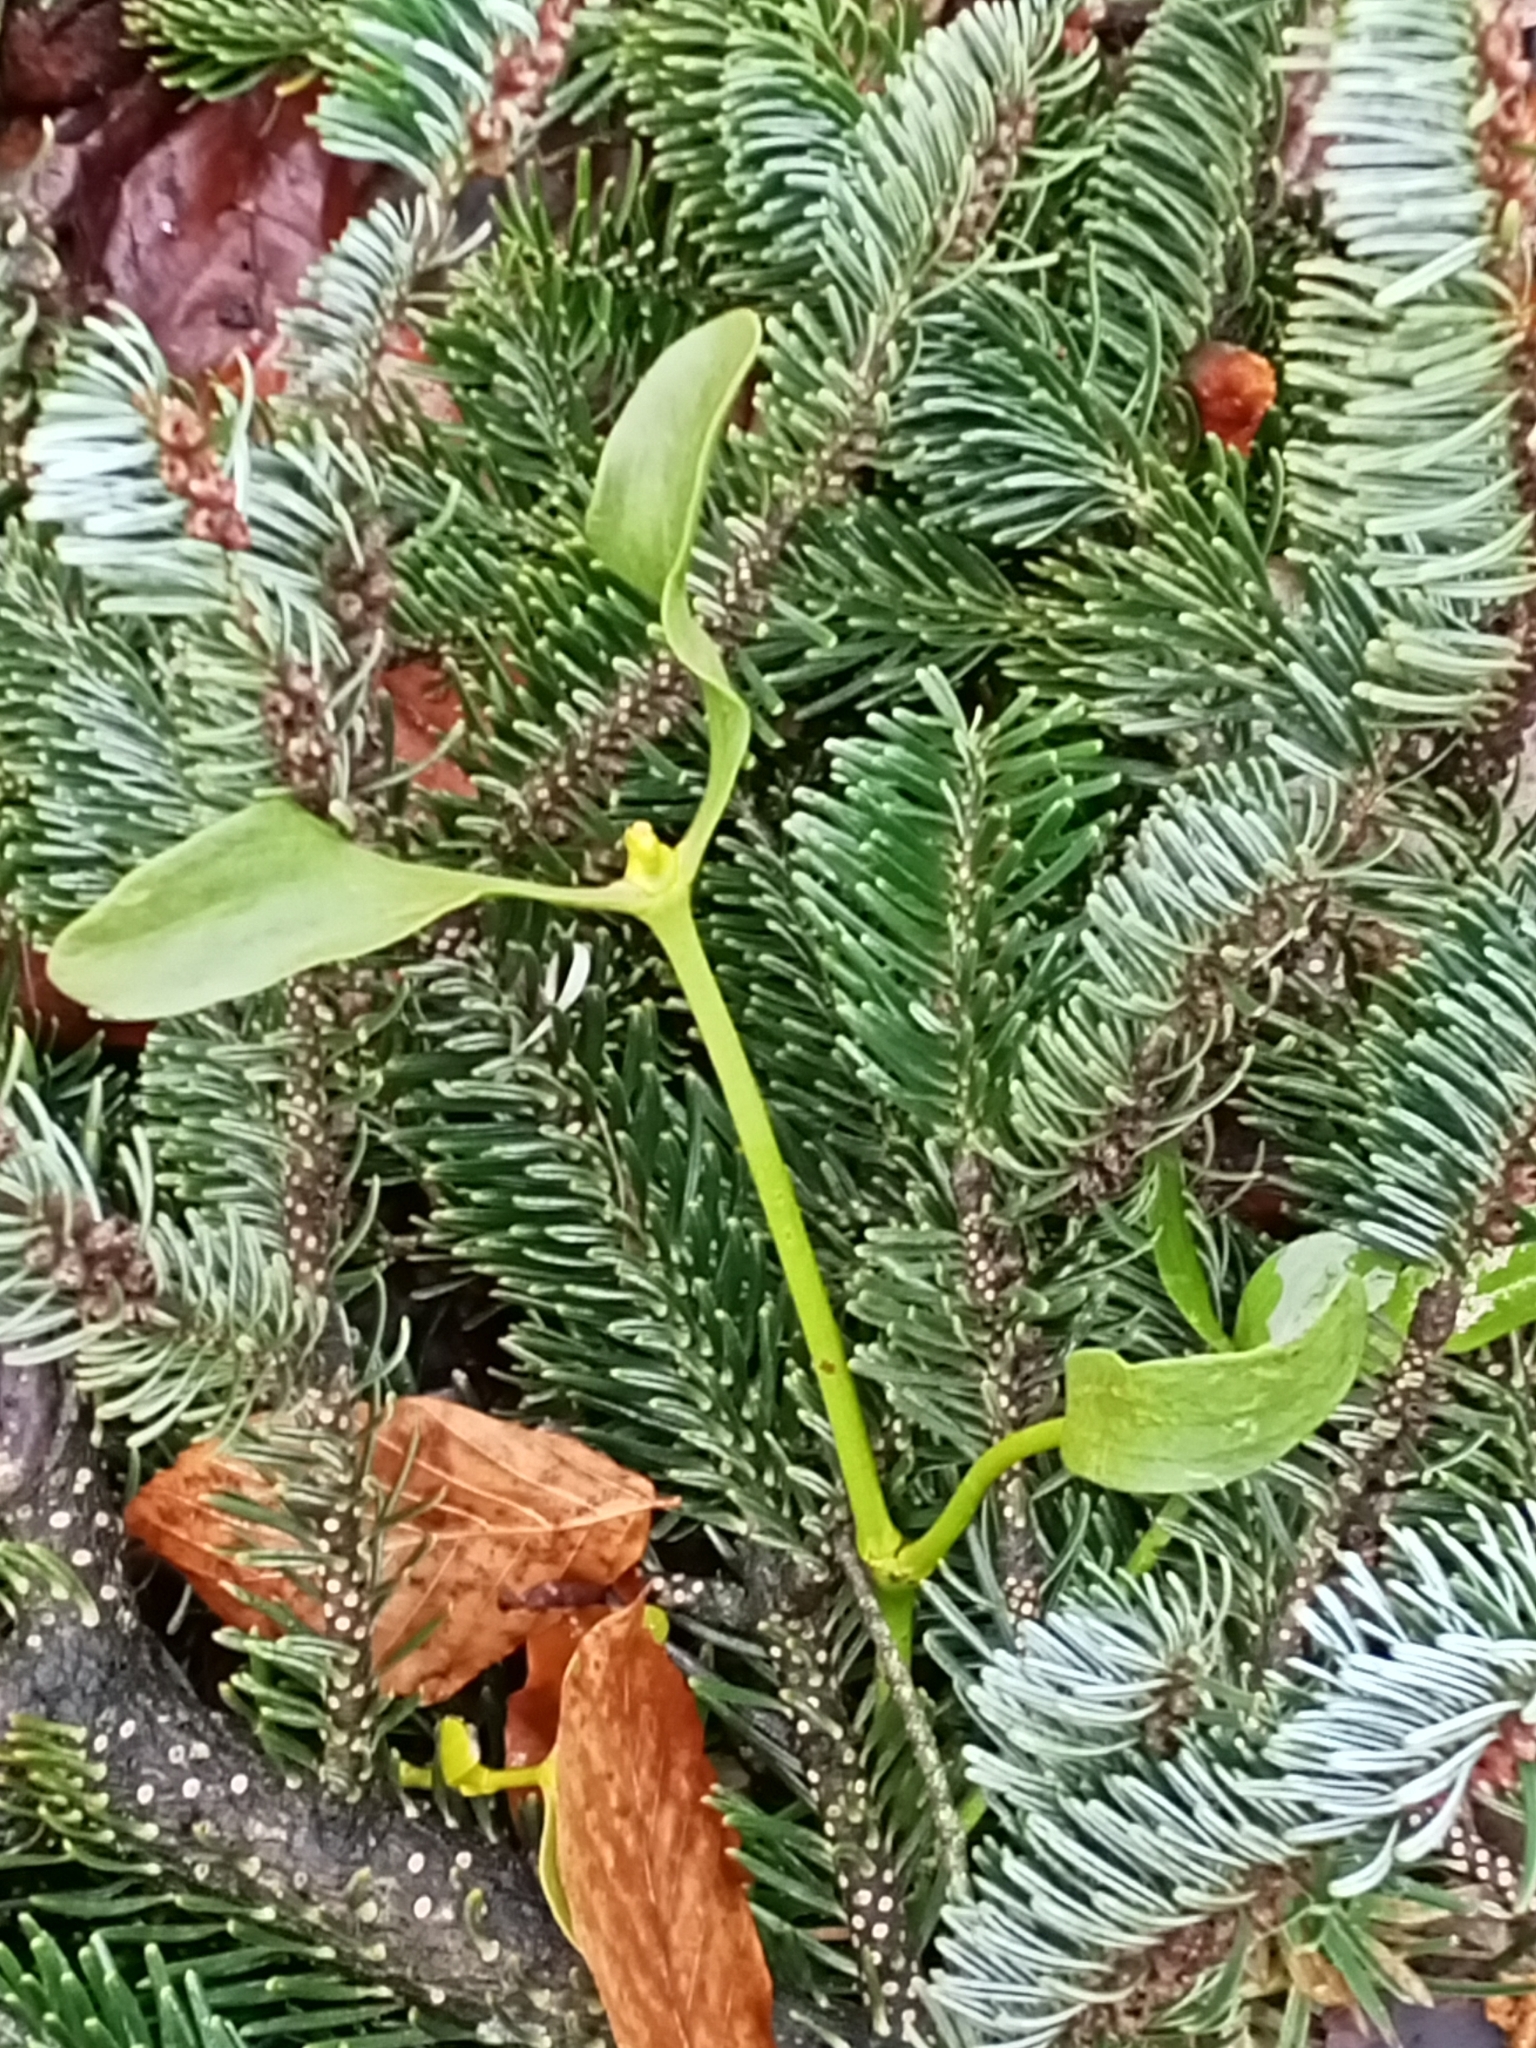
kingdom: Plantae
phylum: Tracheophyta
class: Magnoliopsida
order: Santalales
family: Viscaceae
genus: Viscum
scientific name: Viscum album
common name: Mistletoe
